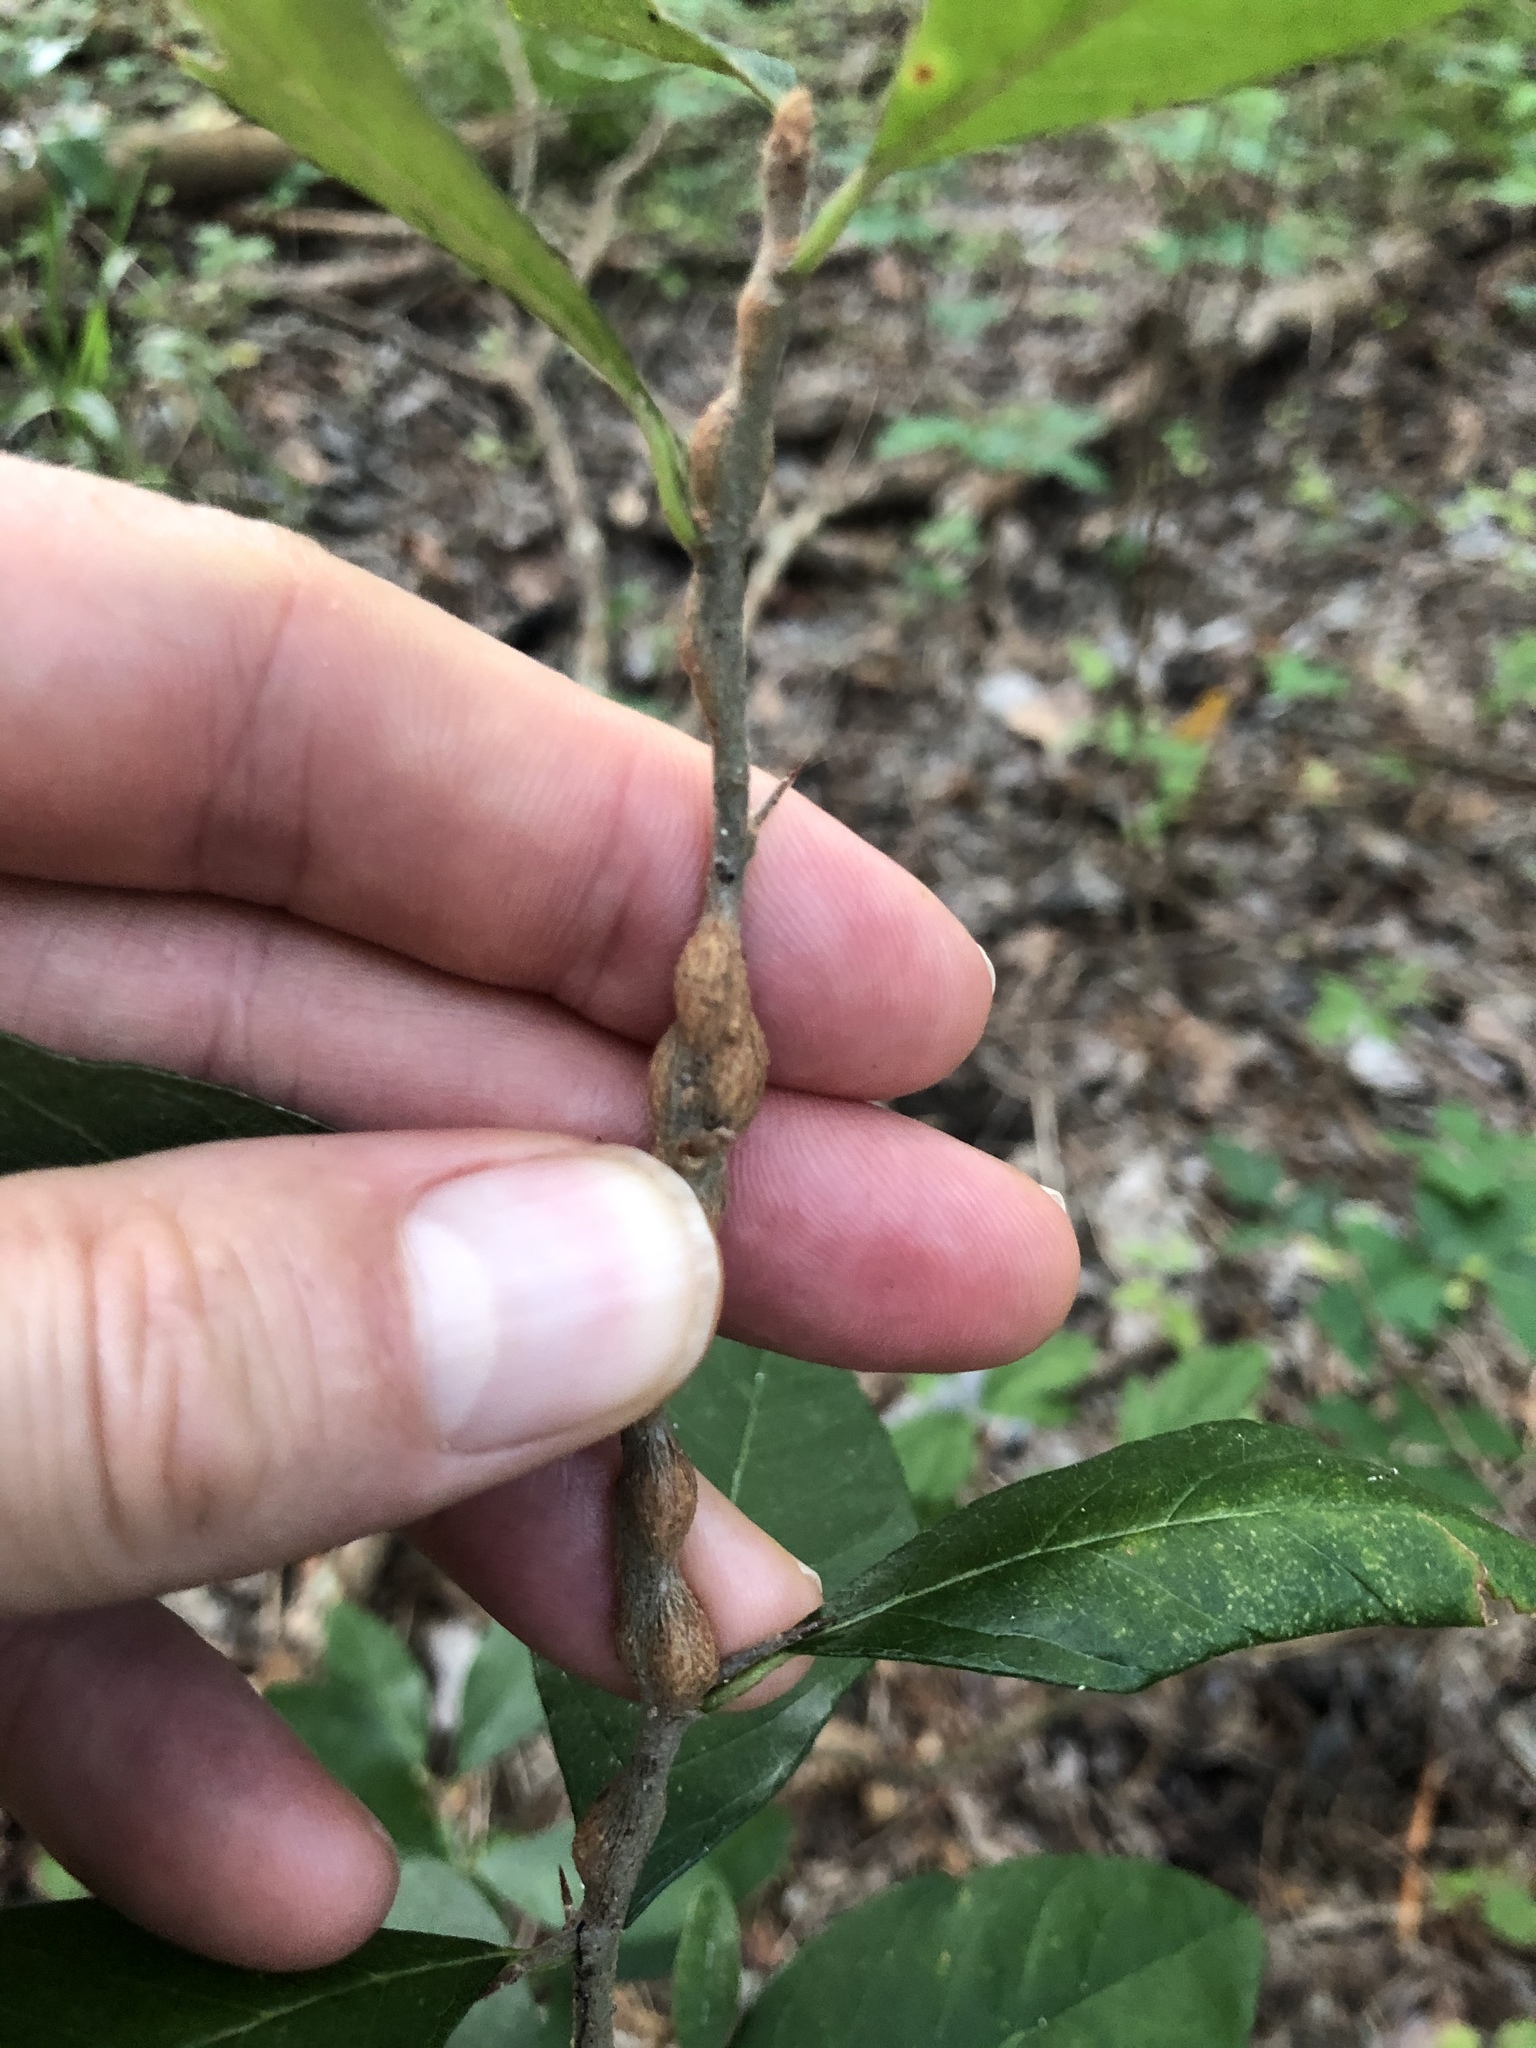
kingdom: Animalia
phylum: Arthropoda
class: Insecta
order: Diptera
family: Cecidomyiidae
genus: Bruggmanniella
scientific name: Bruggmanniella bumeliae
